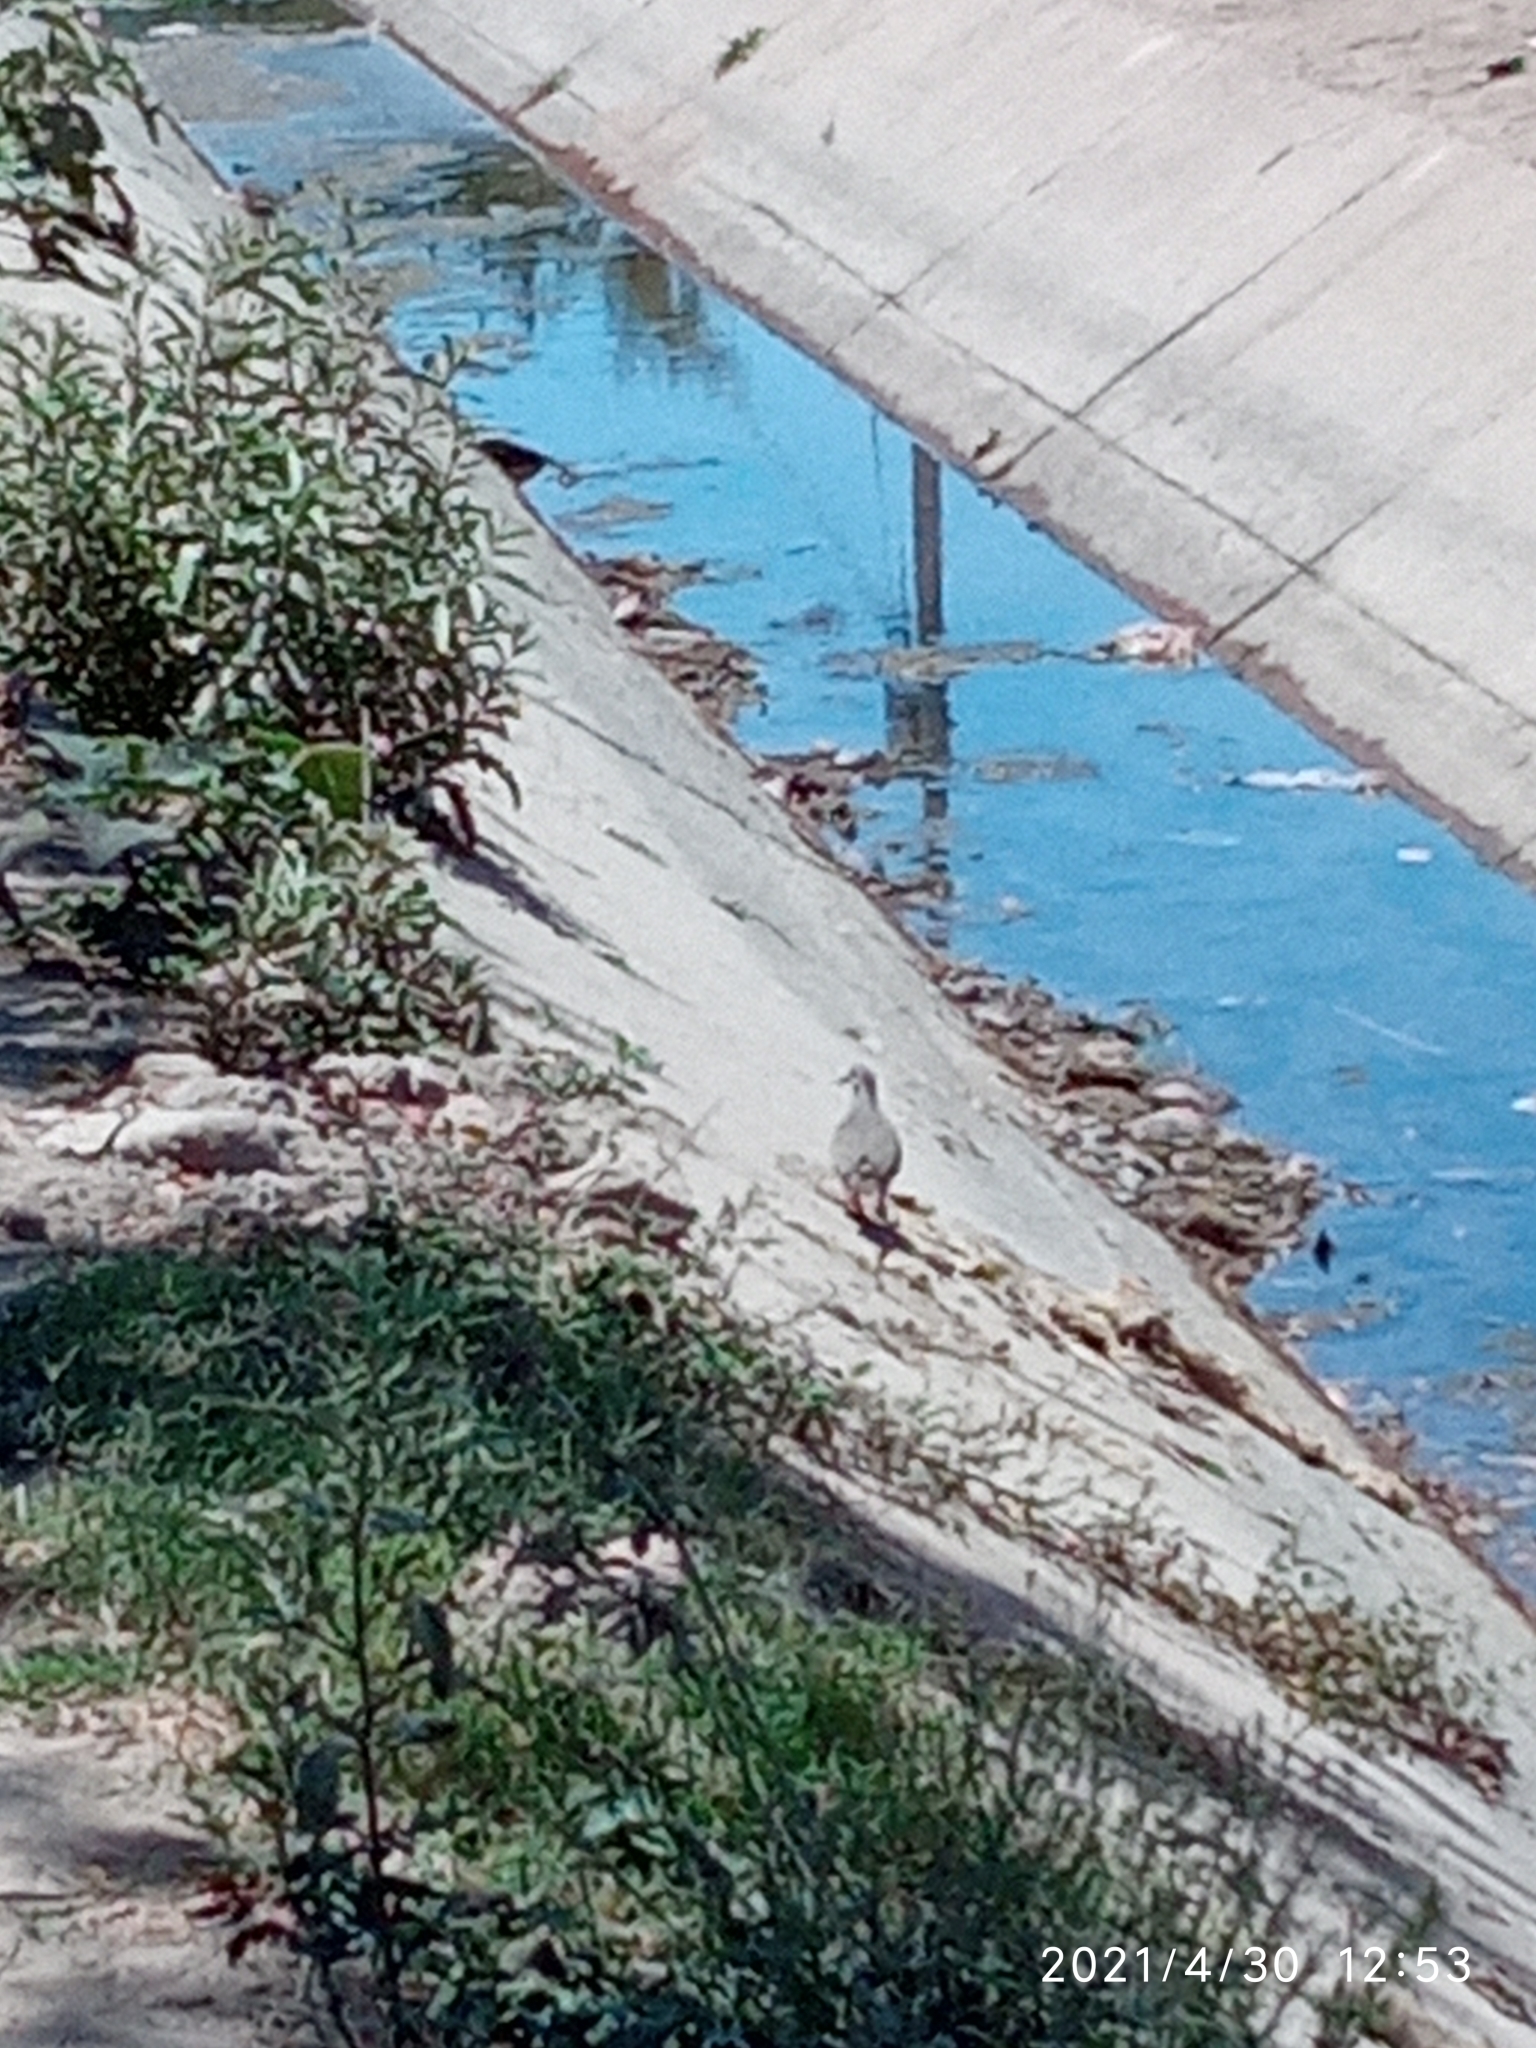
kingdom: Animalia
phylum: Chordata
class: Aves
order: Columbiformes
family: Columbidae
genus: Zenaida
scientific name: Zenaida asiatica
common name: White-winged dove
